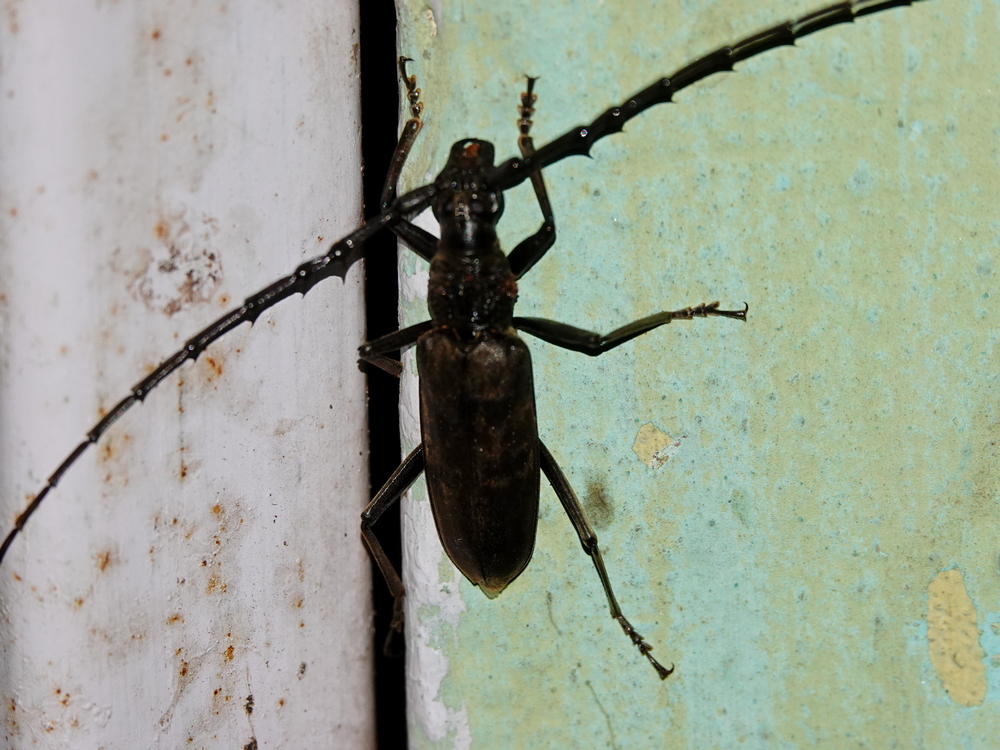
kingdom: Animalia
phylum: Arthropoda
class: Insecta
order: Coleoptera
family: Cerambycidae
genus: Hoplocerambyx
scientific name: Hoplocerambyx spinicornis
